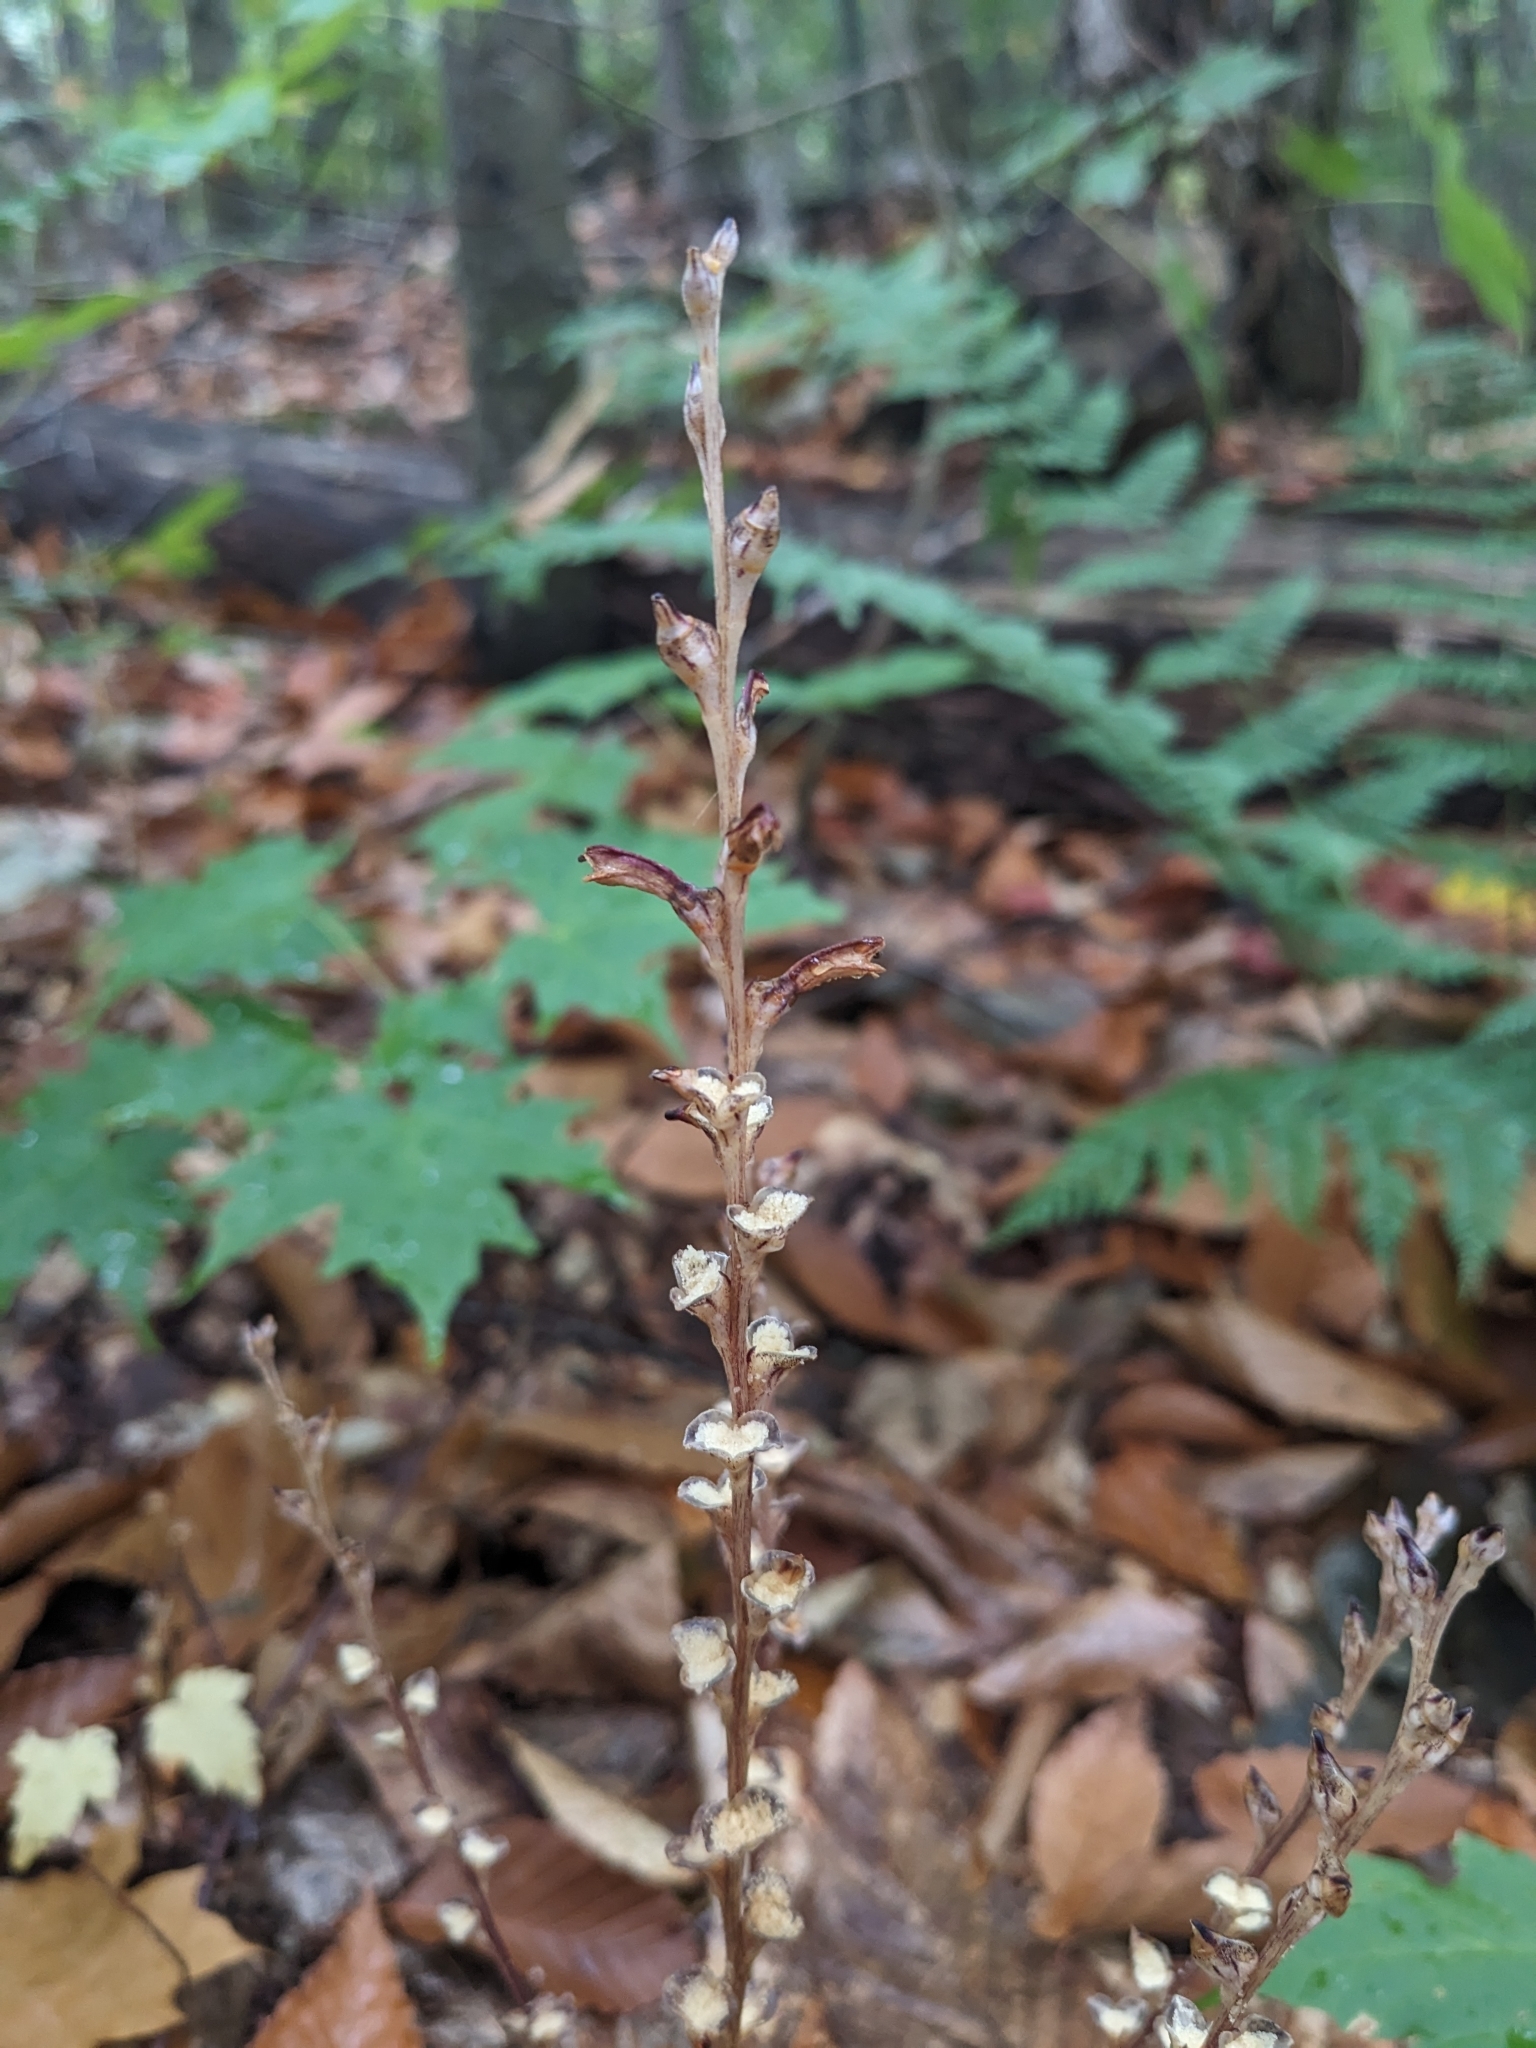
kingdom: Plantae
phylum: Tracheophyta
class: Magnoliopsida
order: Lamiales
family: Orobanchaceae
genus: Epifagus
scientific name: Epifagus virginiana
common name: Beechdrops
